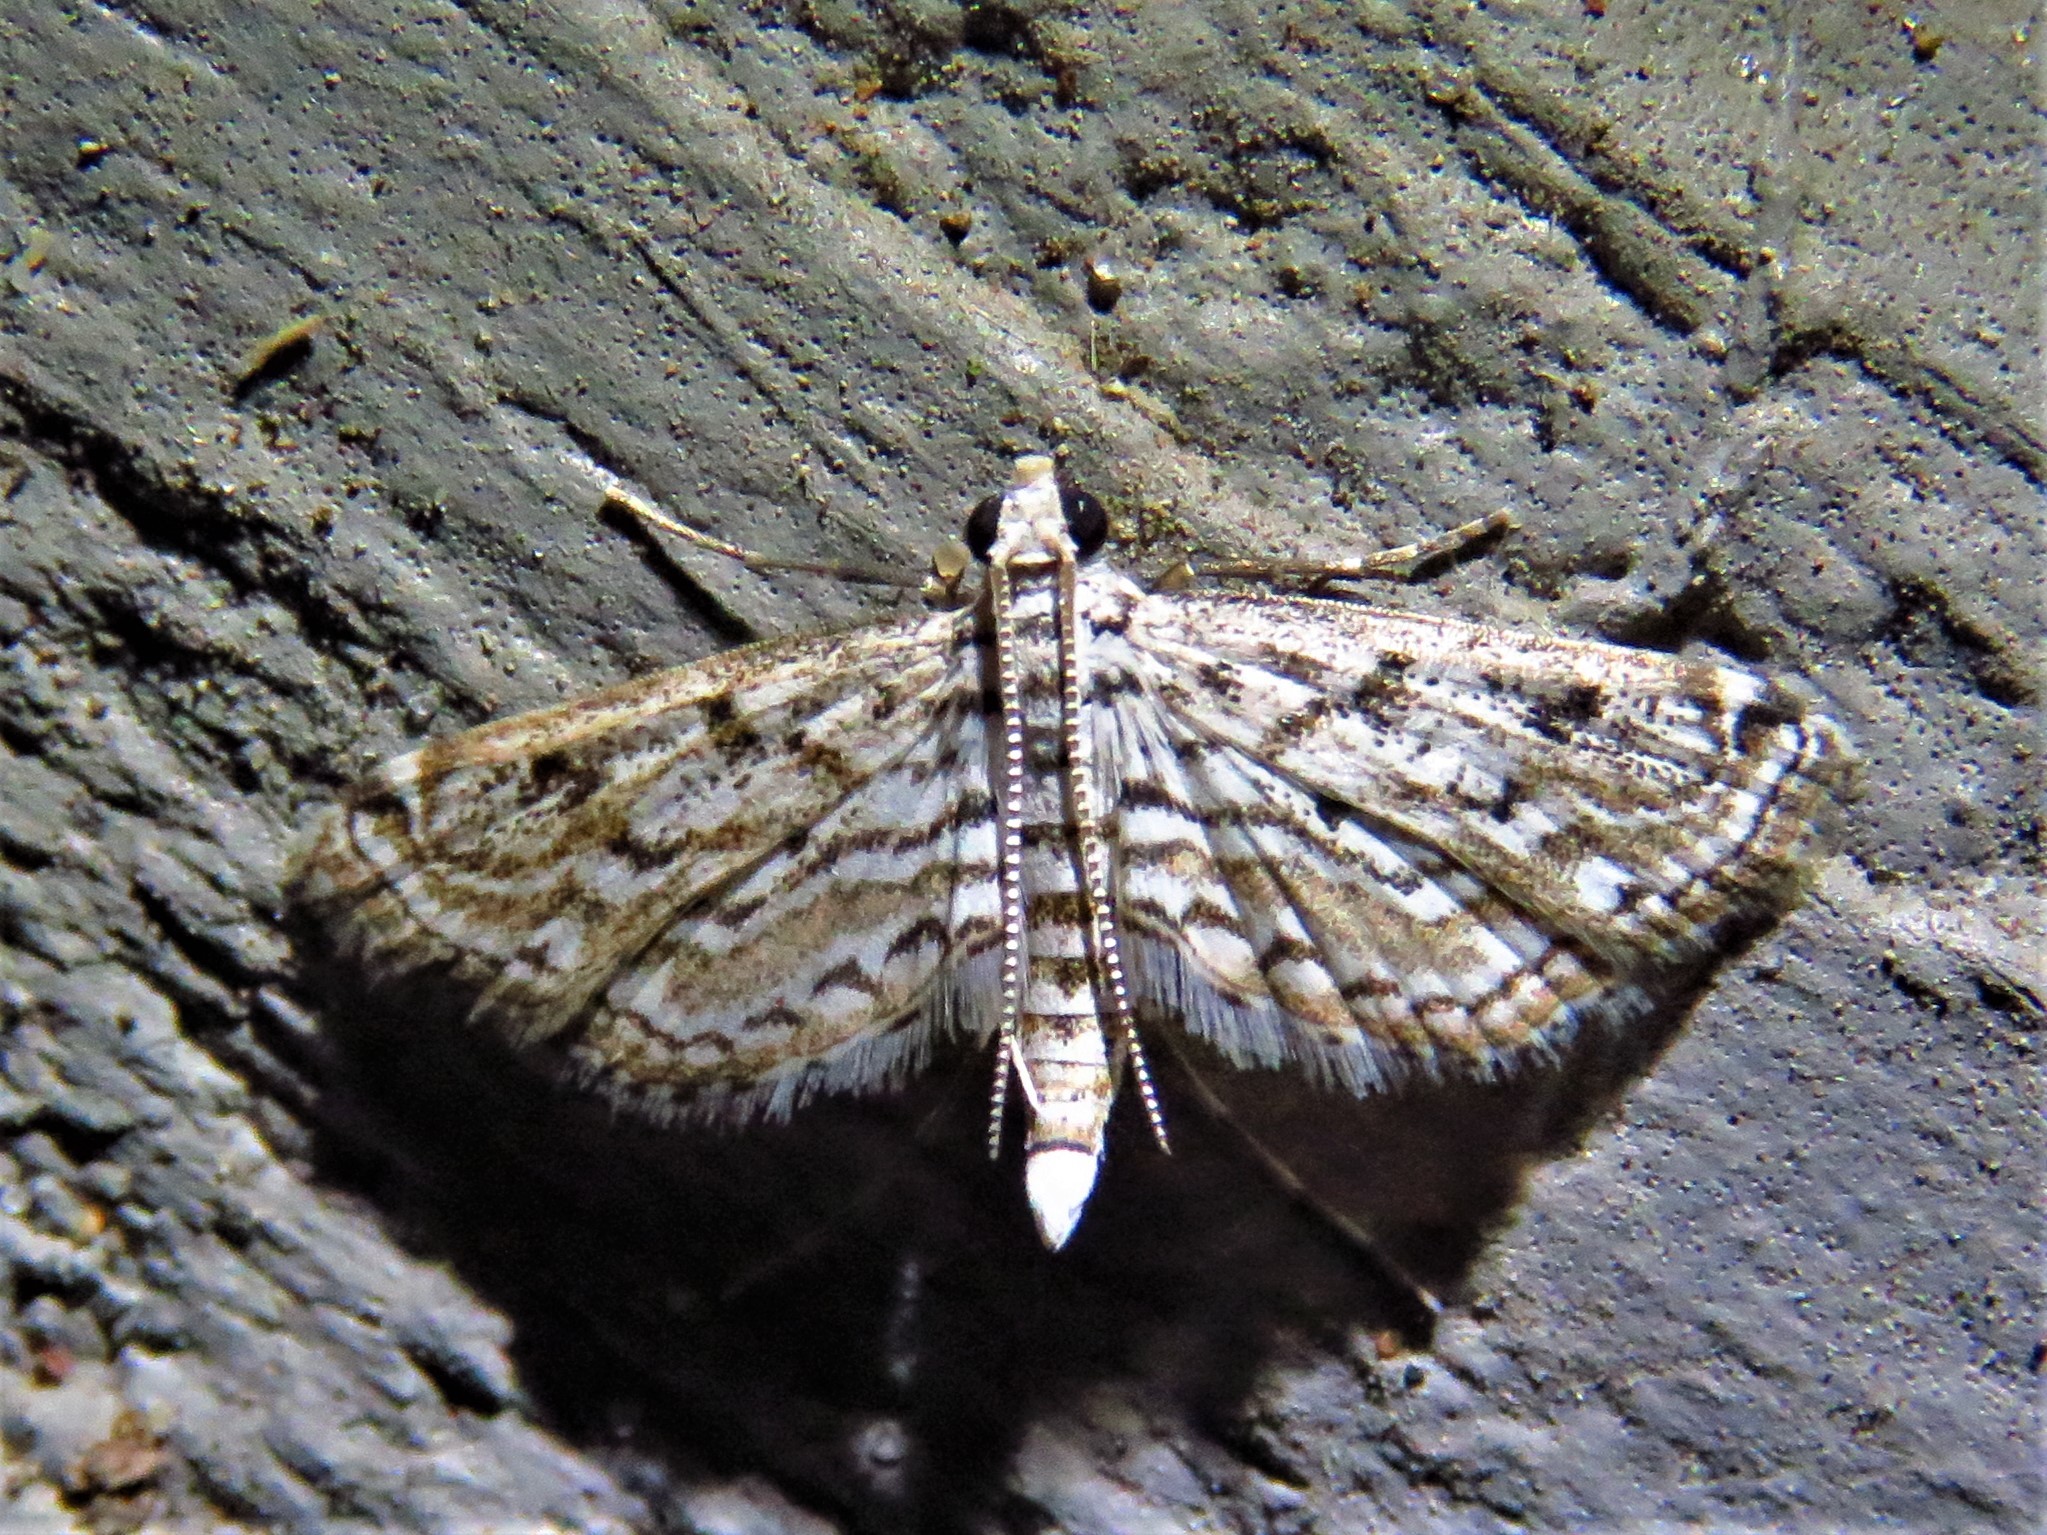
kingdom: Animalia
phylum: Arthropoda
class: Insecta
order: Lepidoptera
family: Crambidae
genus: Parapoynx
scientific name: Parapoynx allionealis
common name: Bladderwort casemaker
